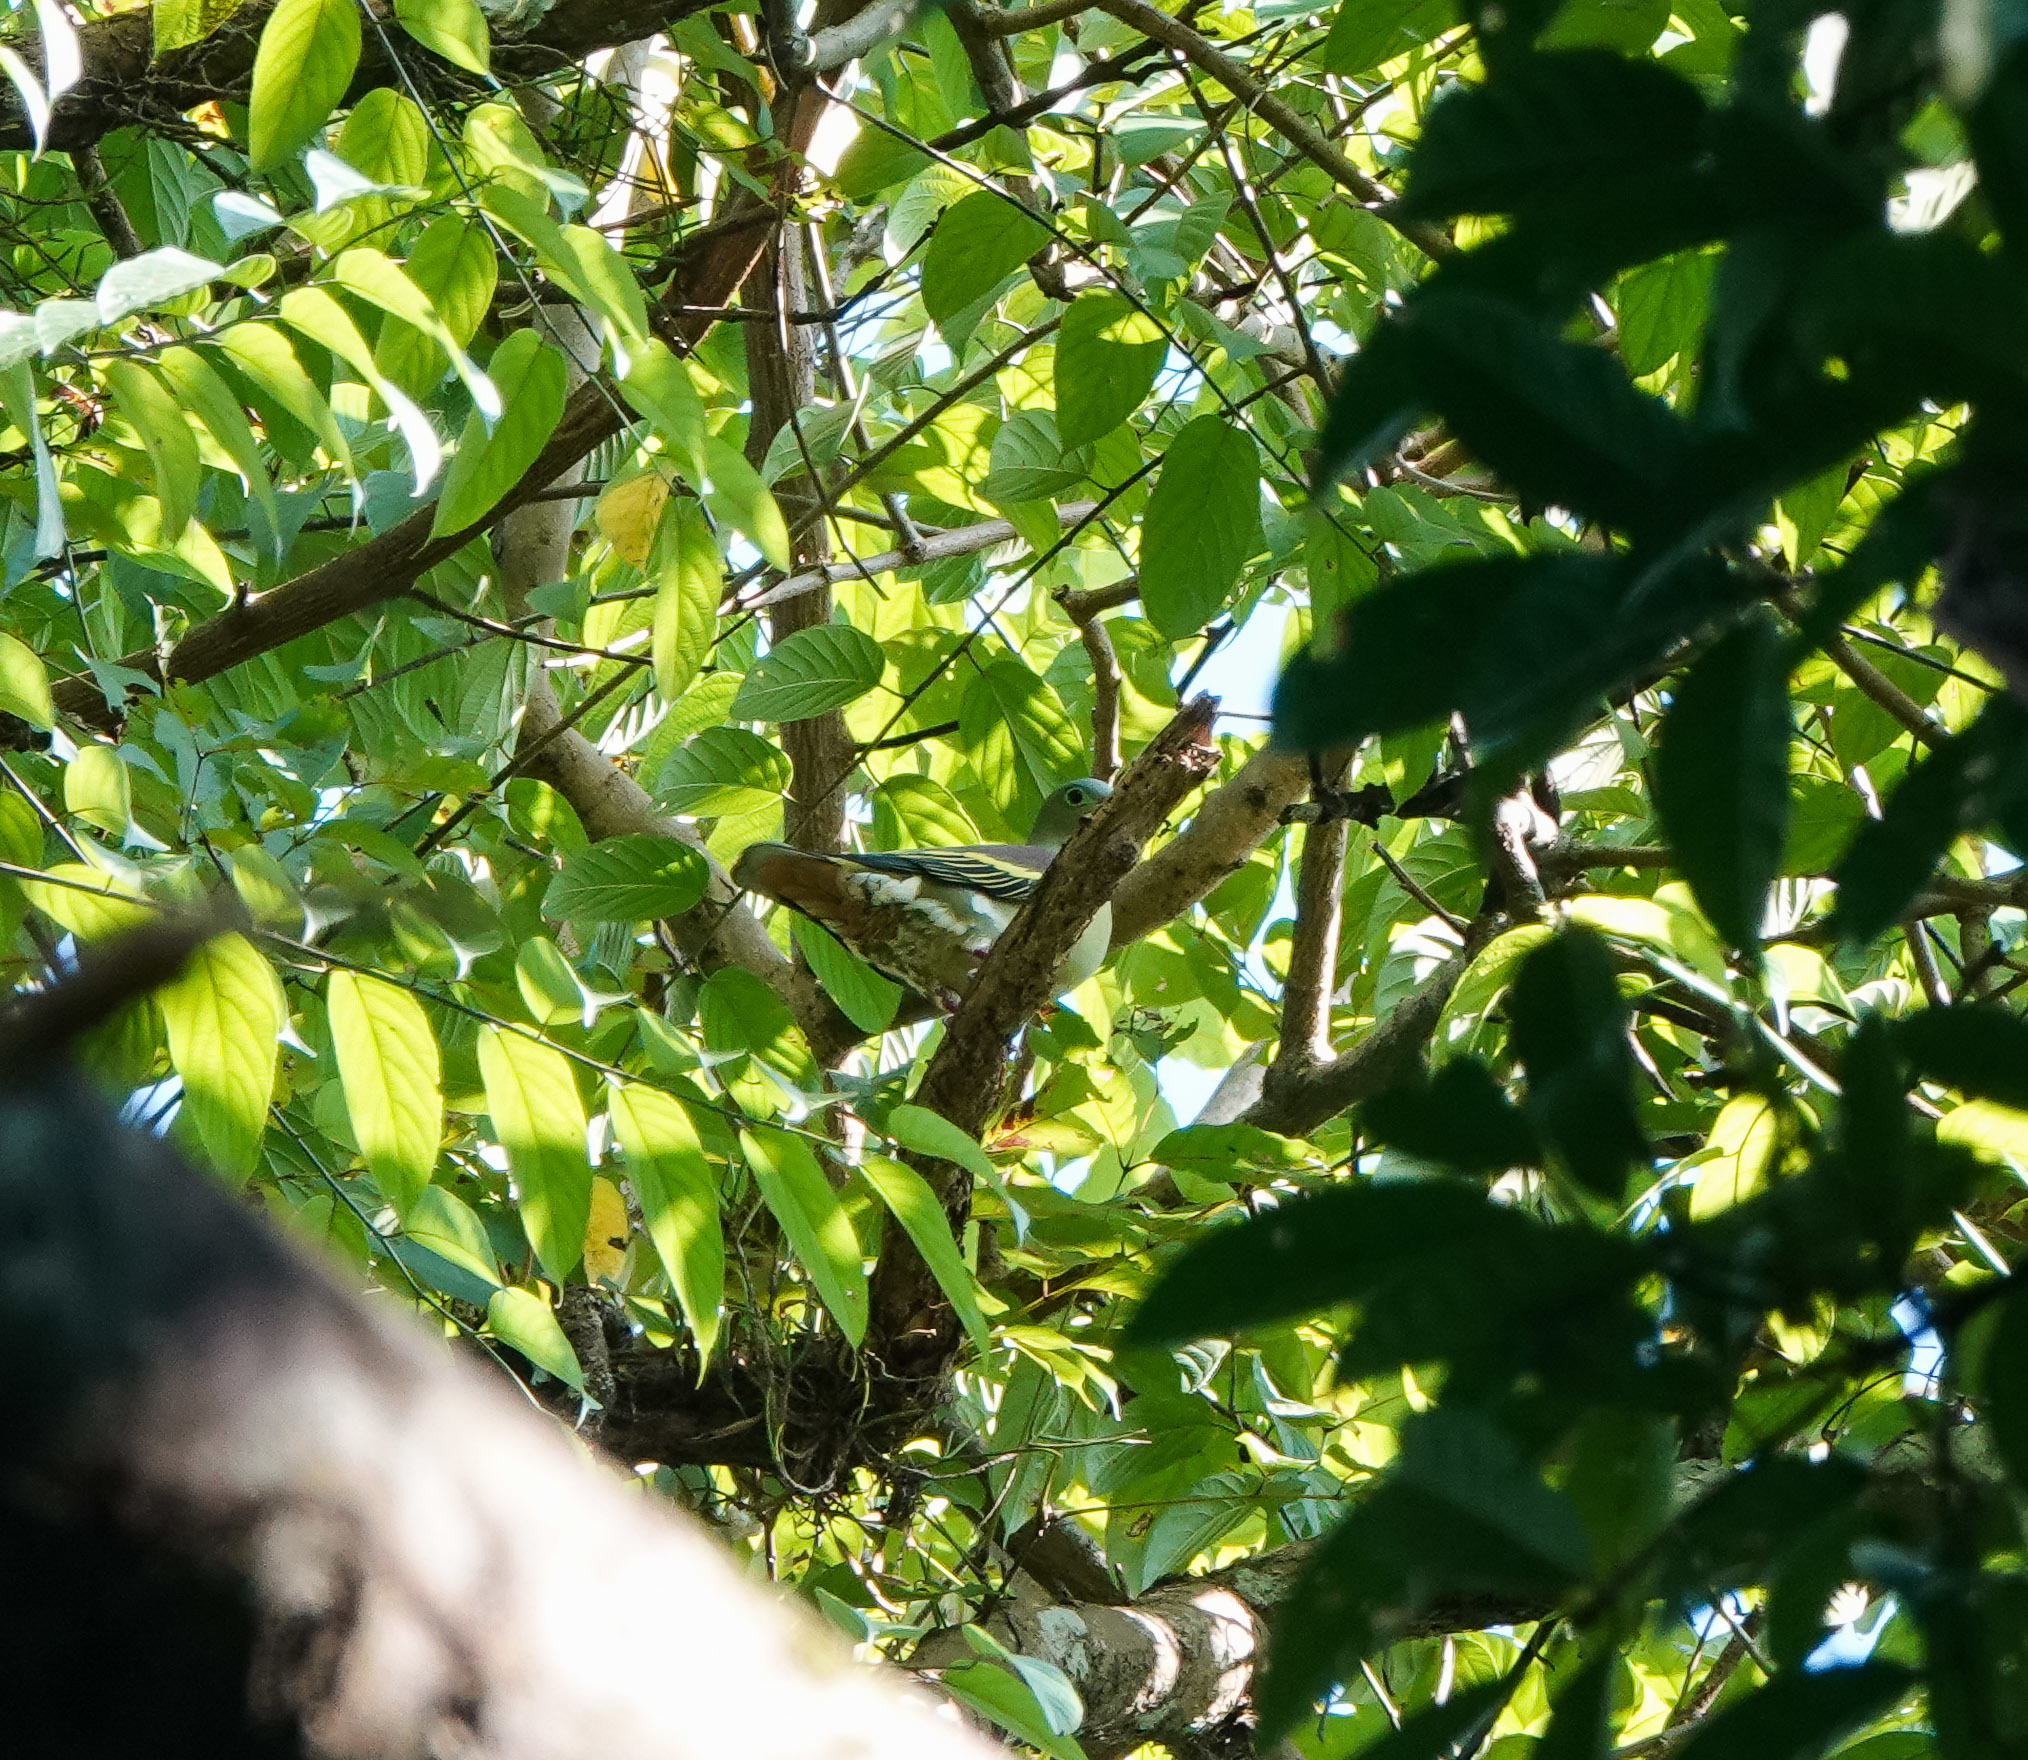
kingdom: Animalia
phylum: Chordata
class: Aves
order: Columbiformes
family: Columbidae
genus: Treron
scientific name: Treron curvirostra
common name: Thick-billed green pigeon
